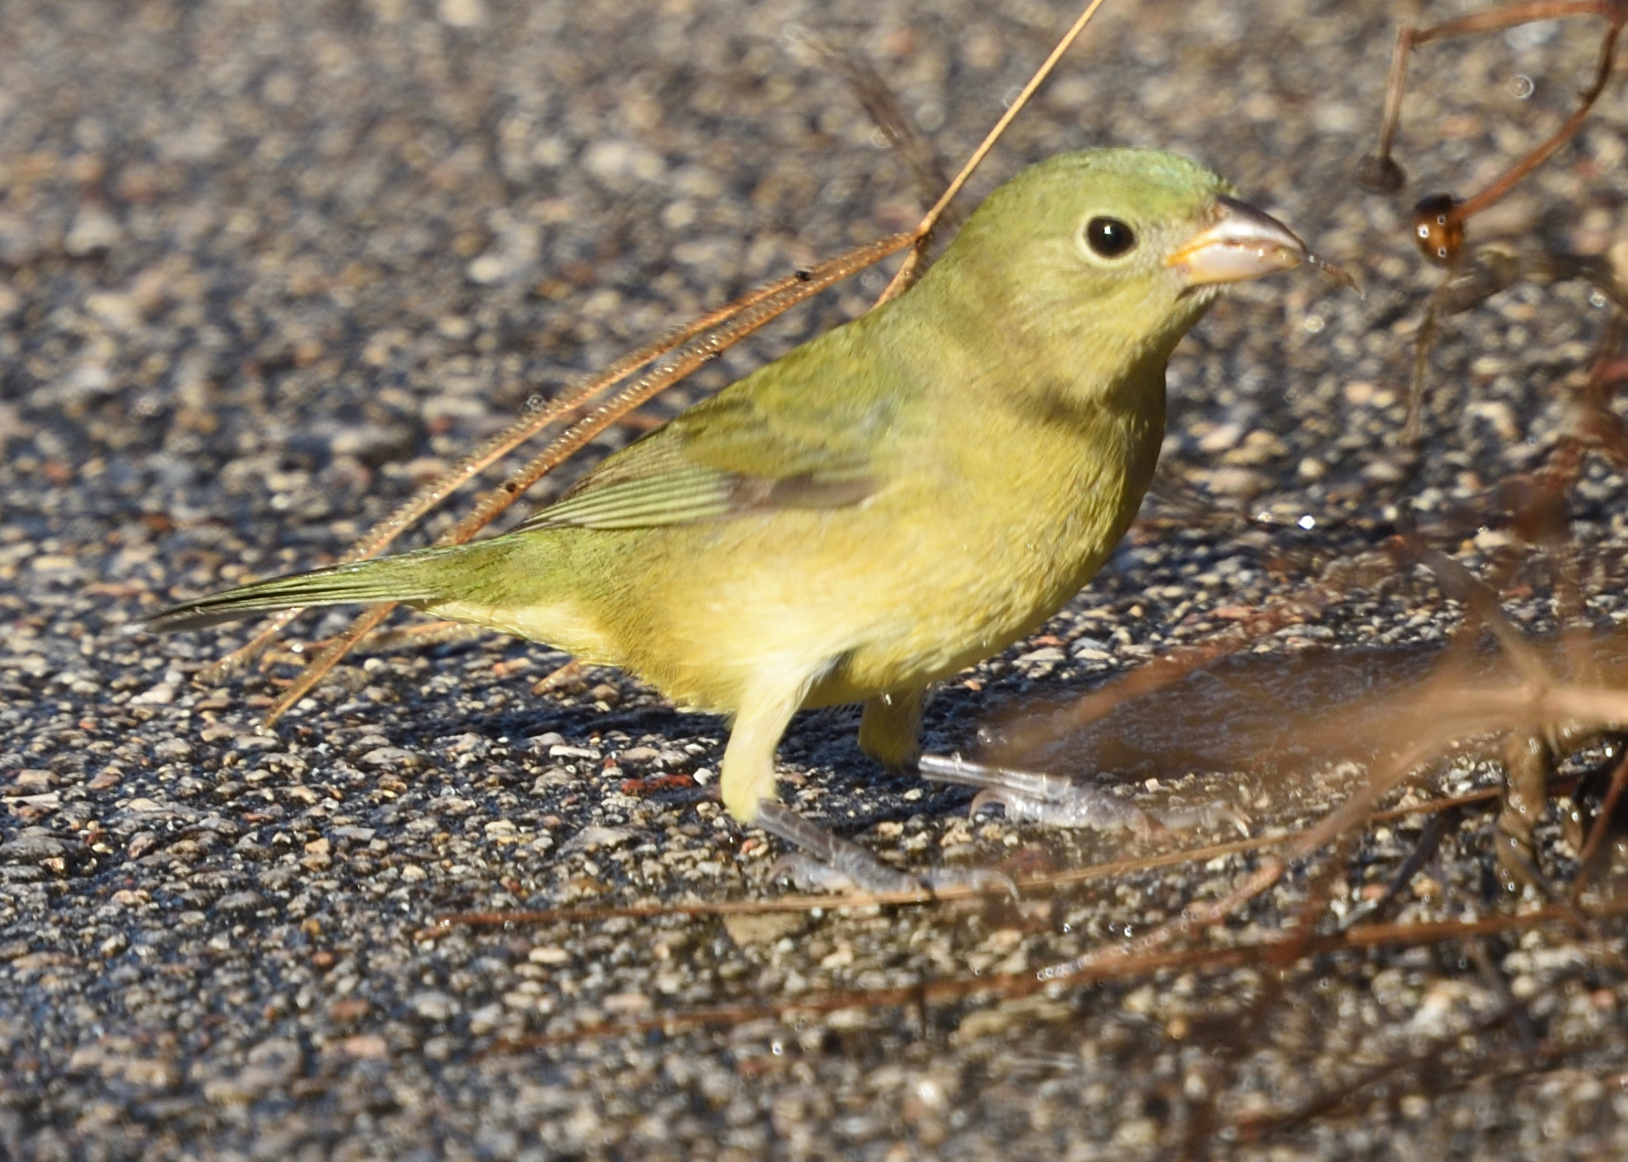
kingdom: Animalia
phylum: Chordata
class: Aves
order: Passeriformes
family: Cardinalidae
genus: Passerina
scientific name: Passerina ciris
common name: Painted bunting
